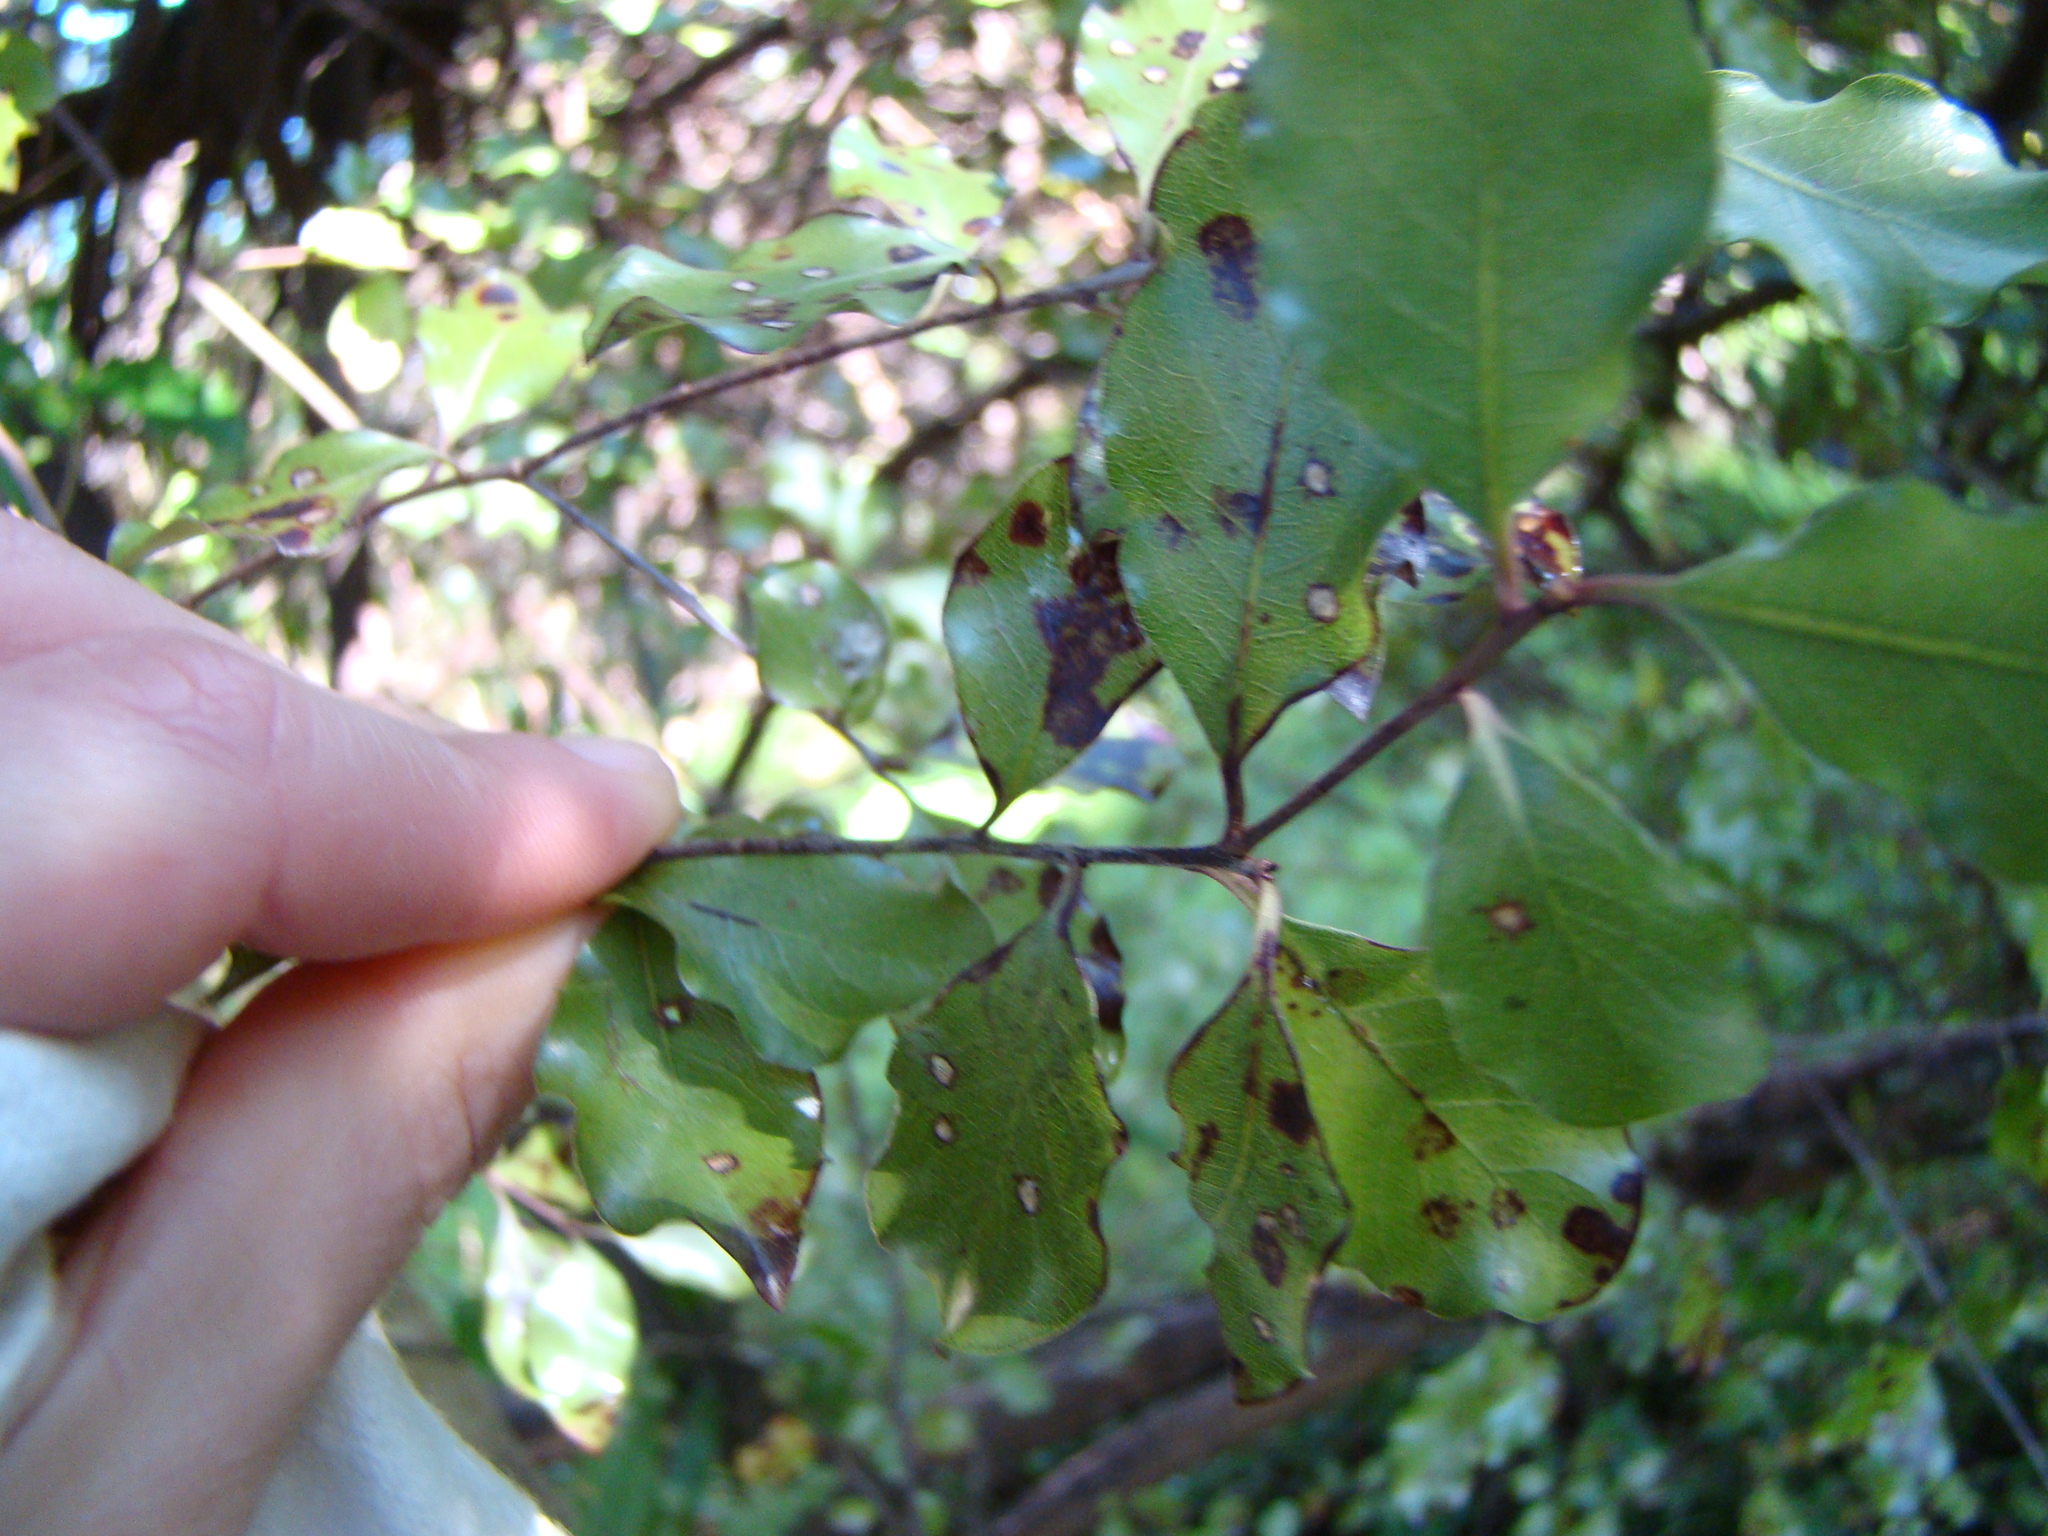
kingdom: Plantae
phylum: Tracheophyta
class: Magnoliopsida
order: Apiales
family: Pittosporaceae
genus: Pittosporum
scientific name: Pittosporum tenuifolium
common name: Kohuhu
